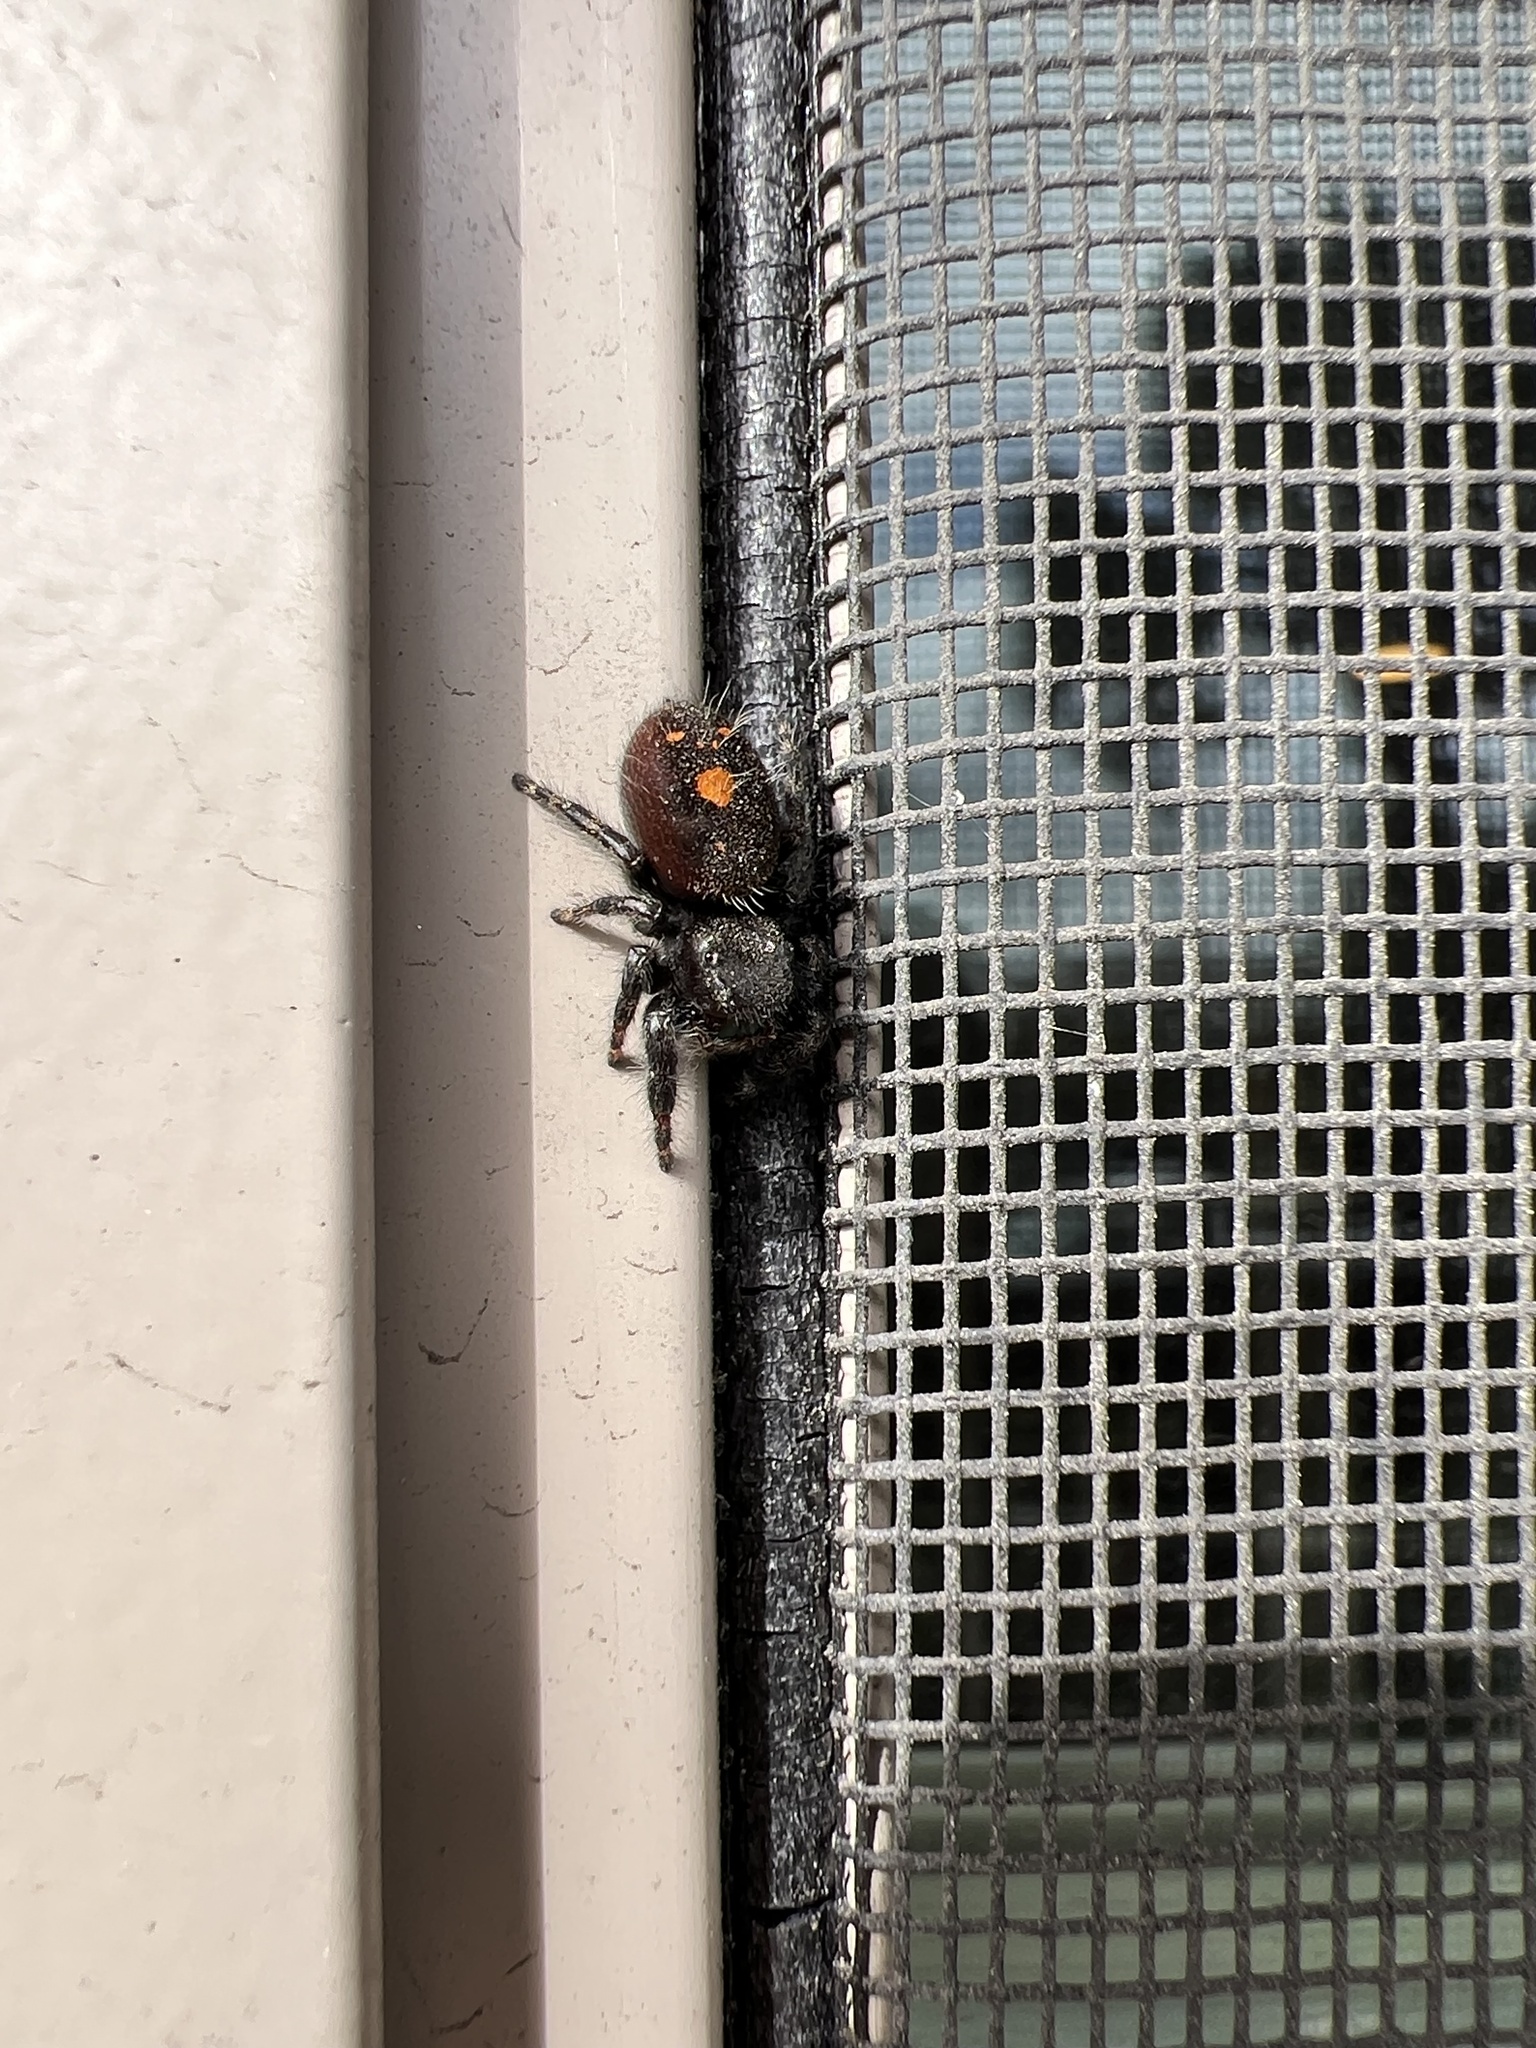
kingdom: Animalia
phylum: Arthropoda
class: Arachnida
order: Araneae
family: Salticidae
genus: Phidippus
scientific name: Phidippus audax
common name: Bold jumper
